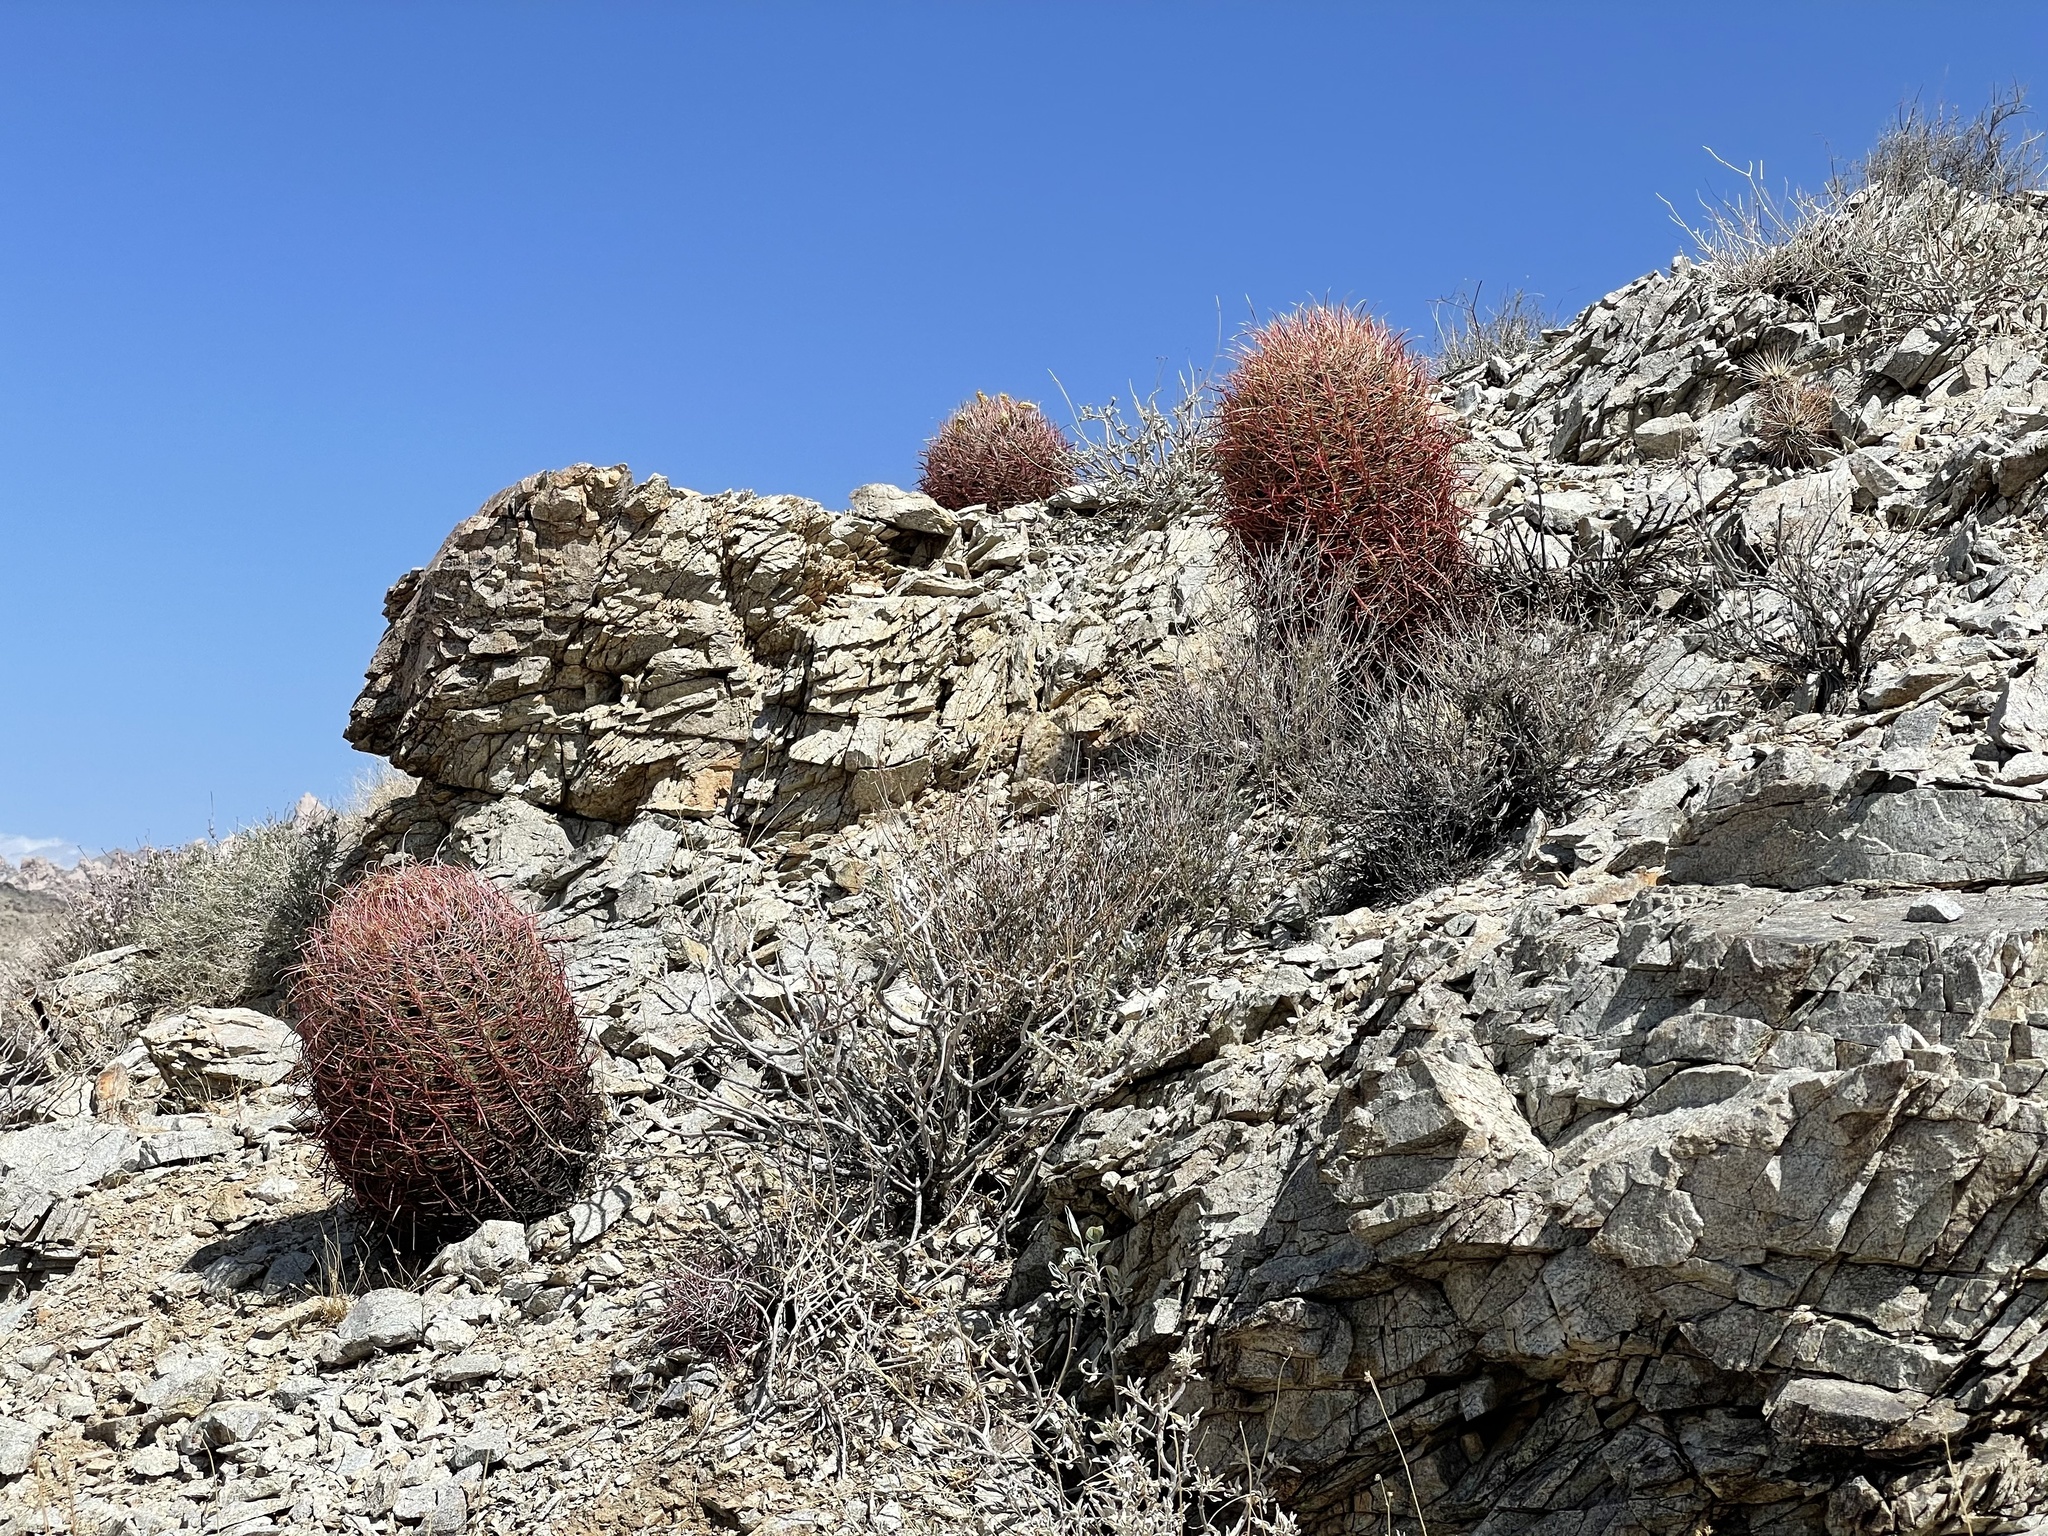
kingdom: Plantae
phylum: Tracheophyta
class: Magnoliopsida
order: Caryophyllales
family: Cactaceae
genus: Ferocactus
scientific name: Ferocactus cylindraceus
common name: California barrel cactus
